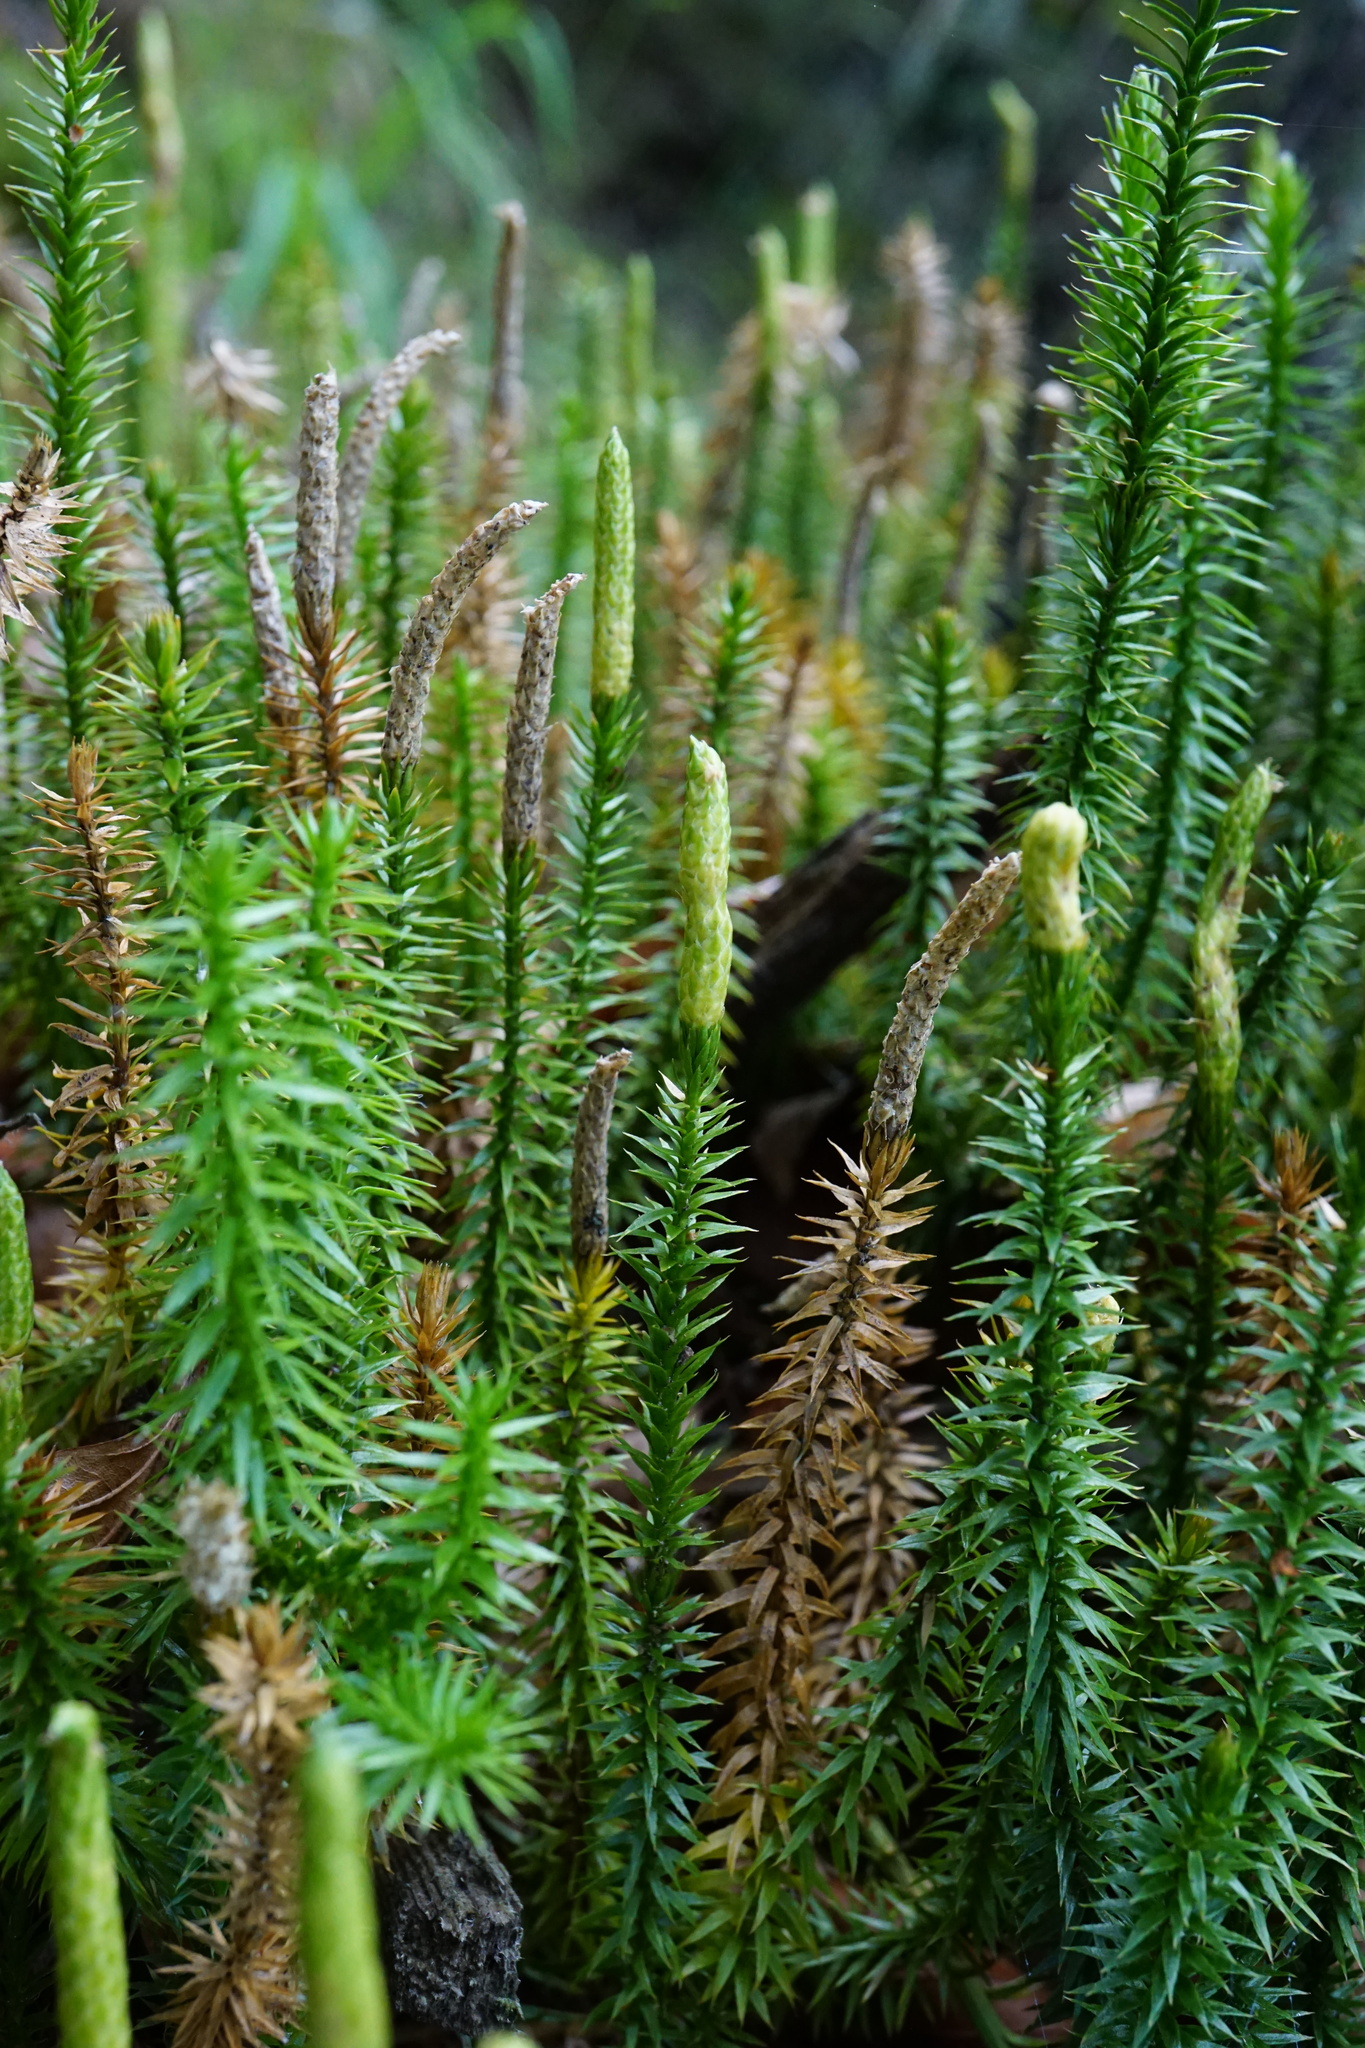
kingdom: Plantae
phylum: Tracheophyta
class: Lycopodiopsida
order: Lycopodiales
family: Lycopodiaceae
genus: Spinulum
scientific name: Spinulum annotinum
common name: Interrupted club-moss
